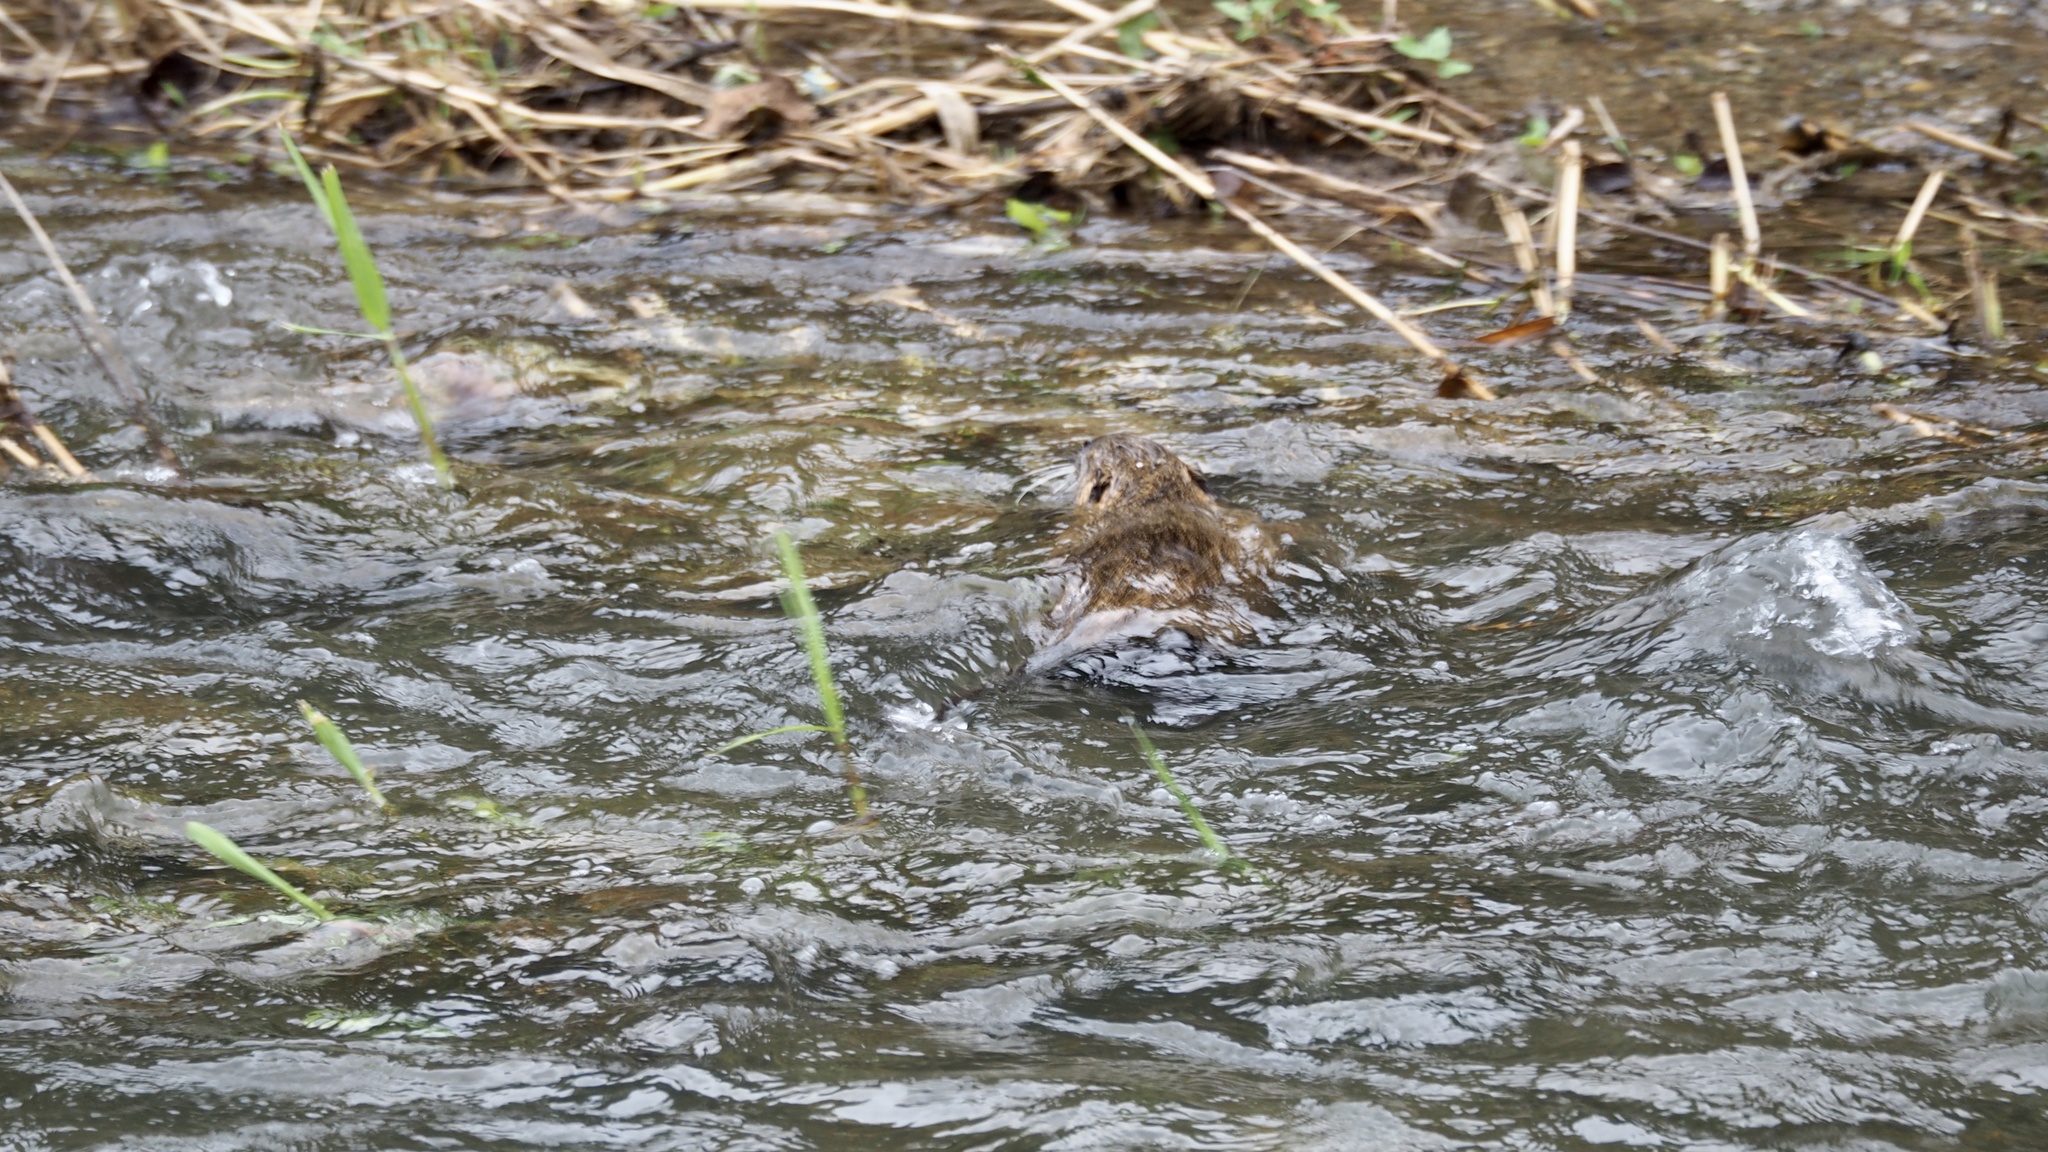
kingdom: Animalia
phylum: Chordata
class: Mammalia
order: Rodentia
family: Myocastoridae
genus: Myocastor
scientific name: Myocastor coypus
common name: Coypu
